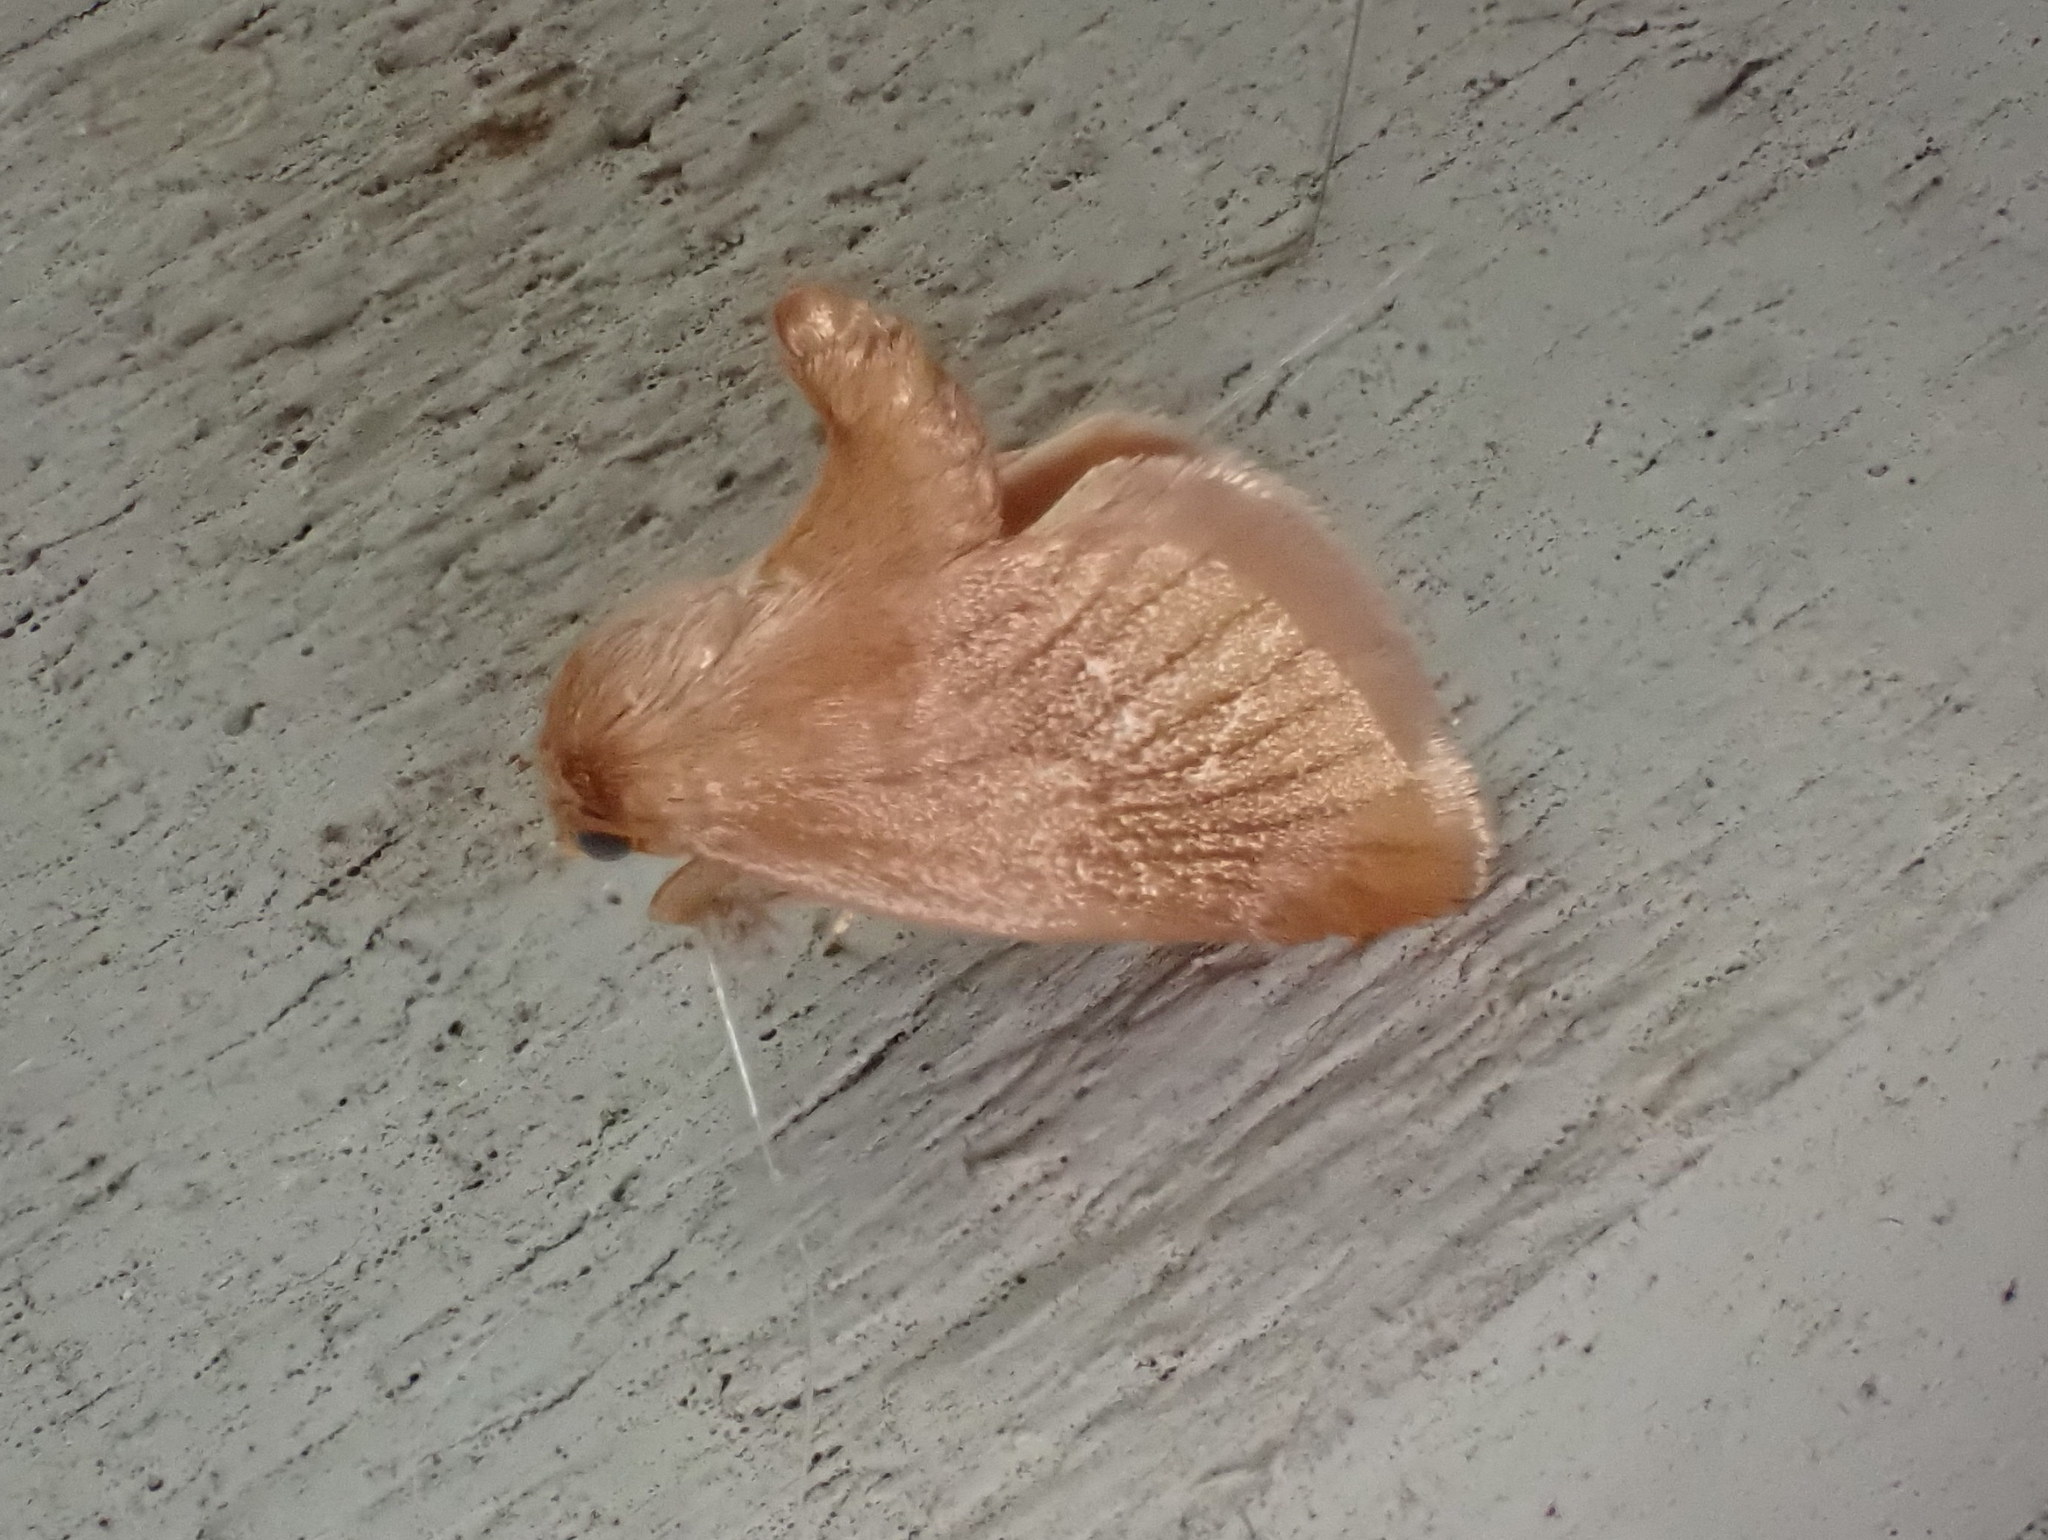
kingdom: Animalia
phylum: Arthropoda
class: Insecta
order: Lepidoptera
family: Limacodidae
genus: Tortricidia
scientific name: Tortricidia testacea
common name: Early button slug moth
